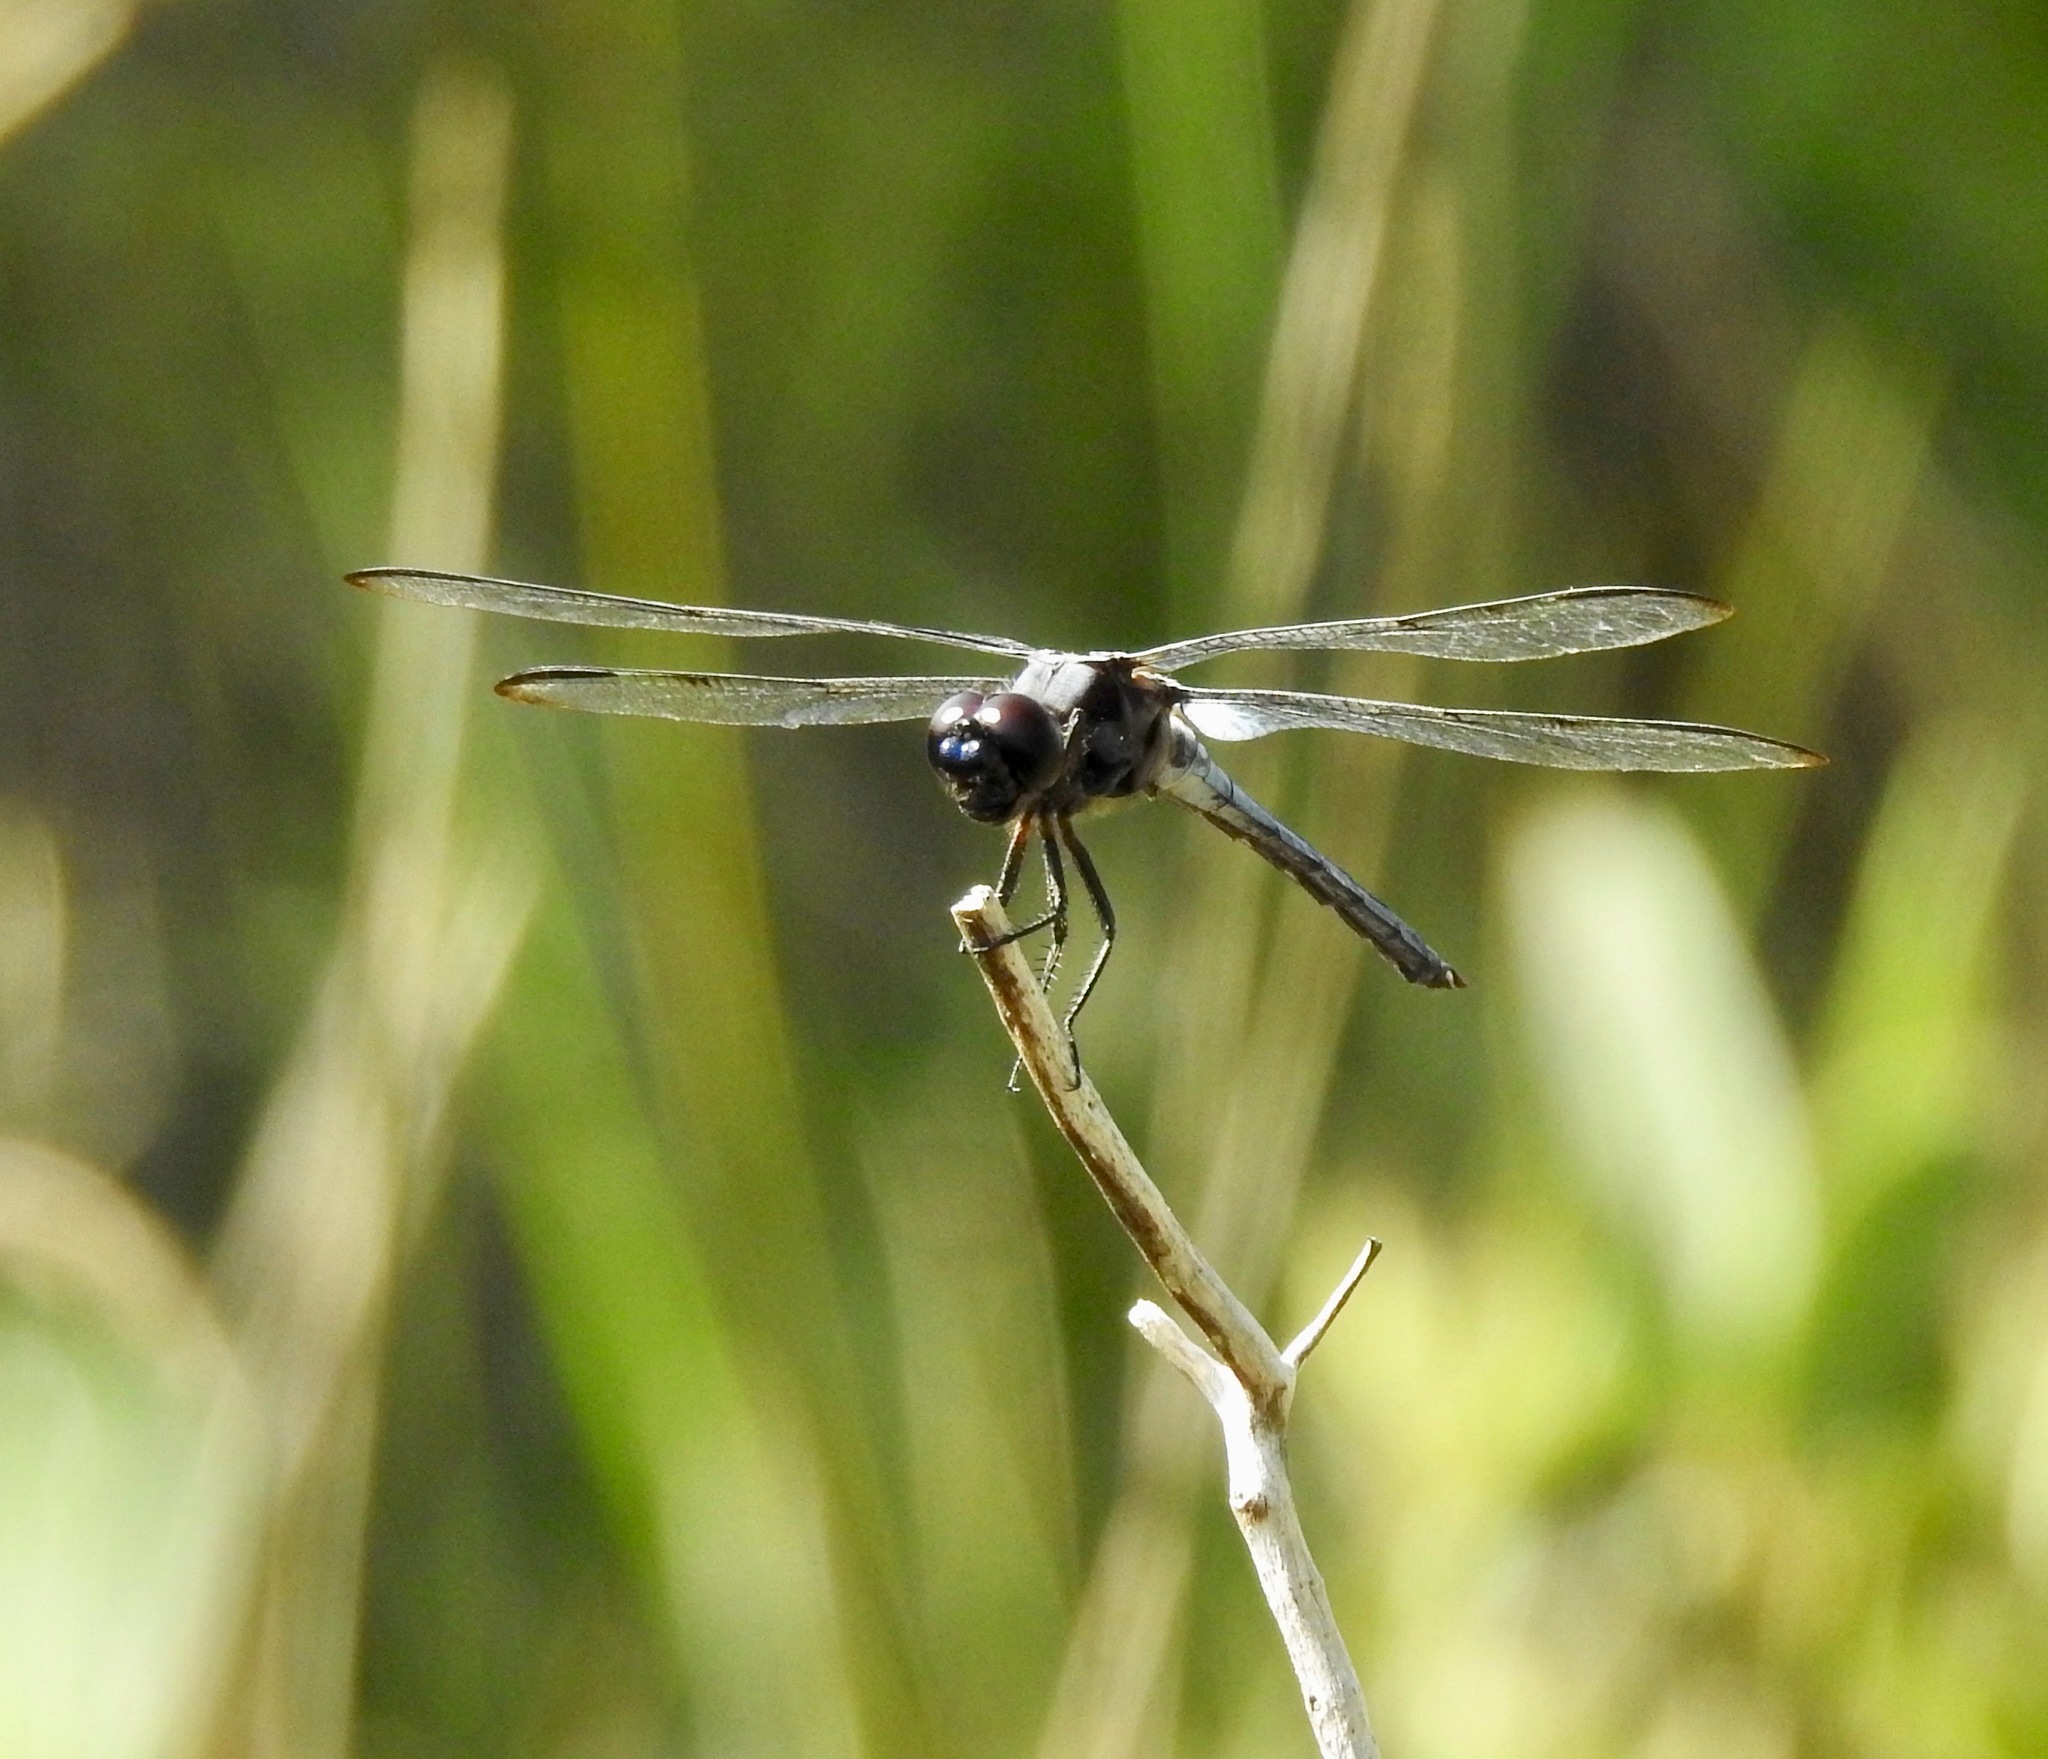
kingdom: Animalia
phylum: Arthropoda
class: Insecta
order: Odonata
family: Libellulidae
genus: Libellula
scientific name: Libellula axilena
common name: Bar-winged skimmer
